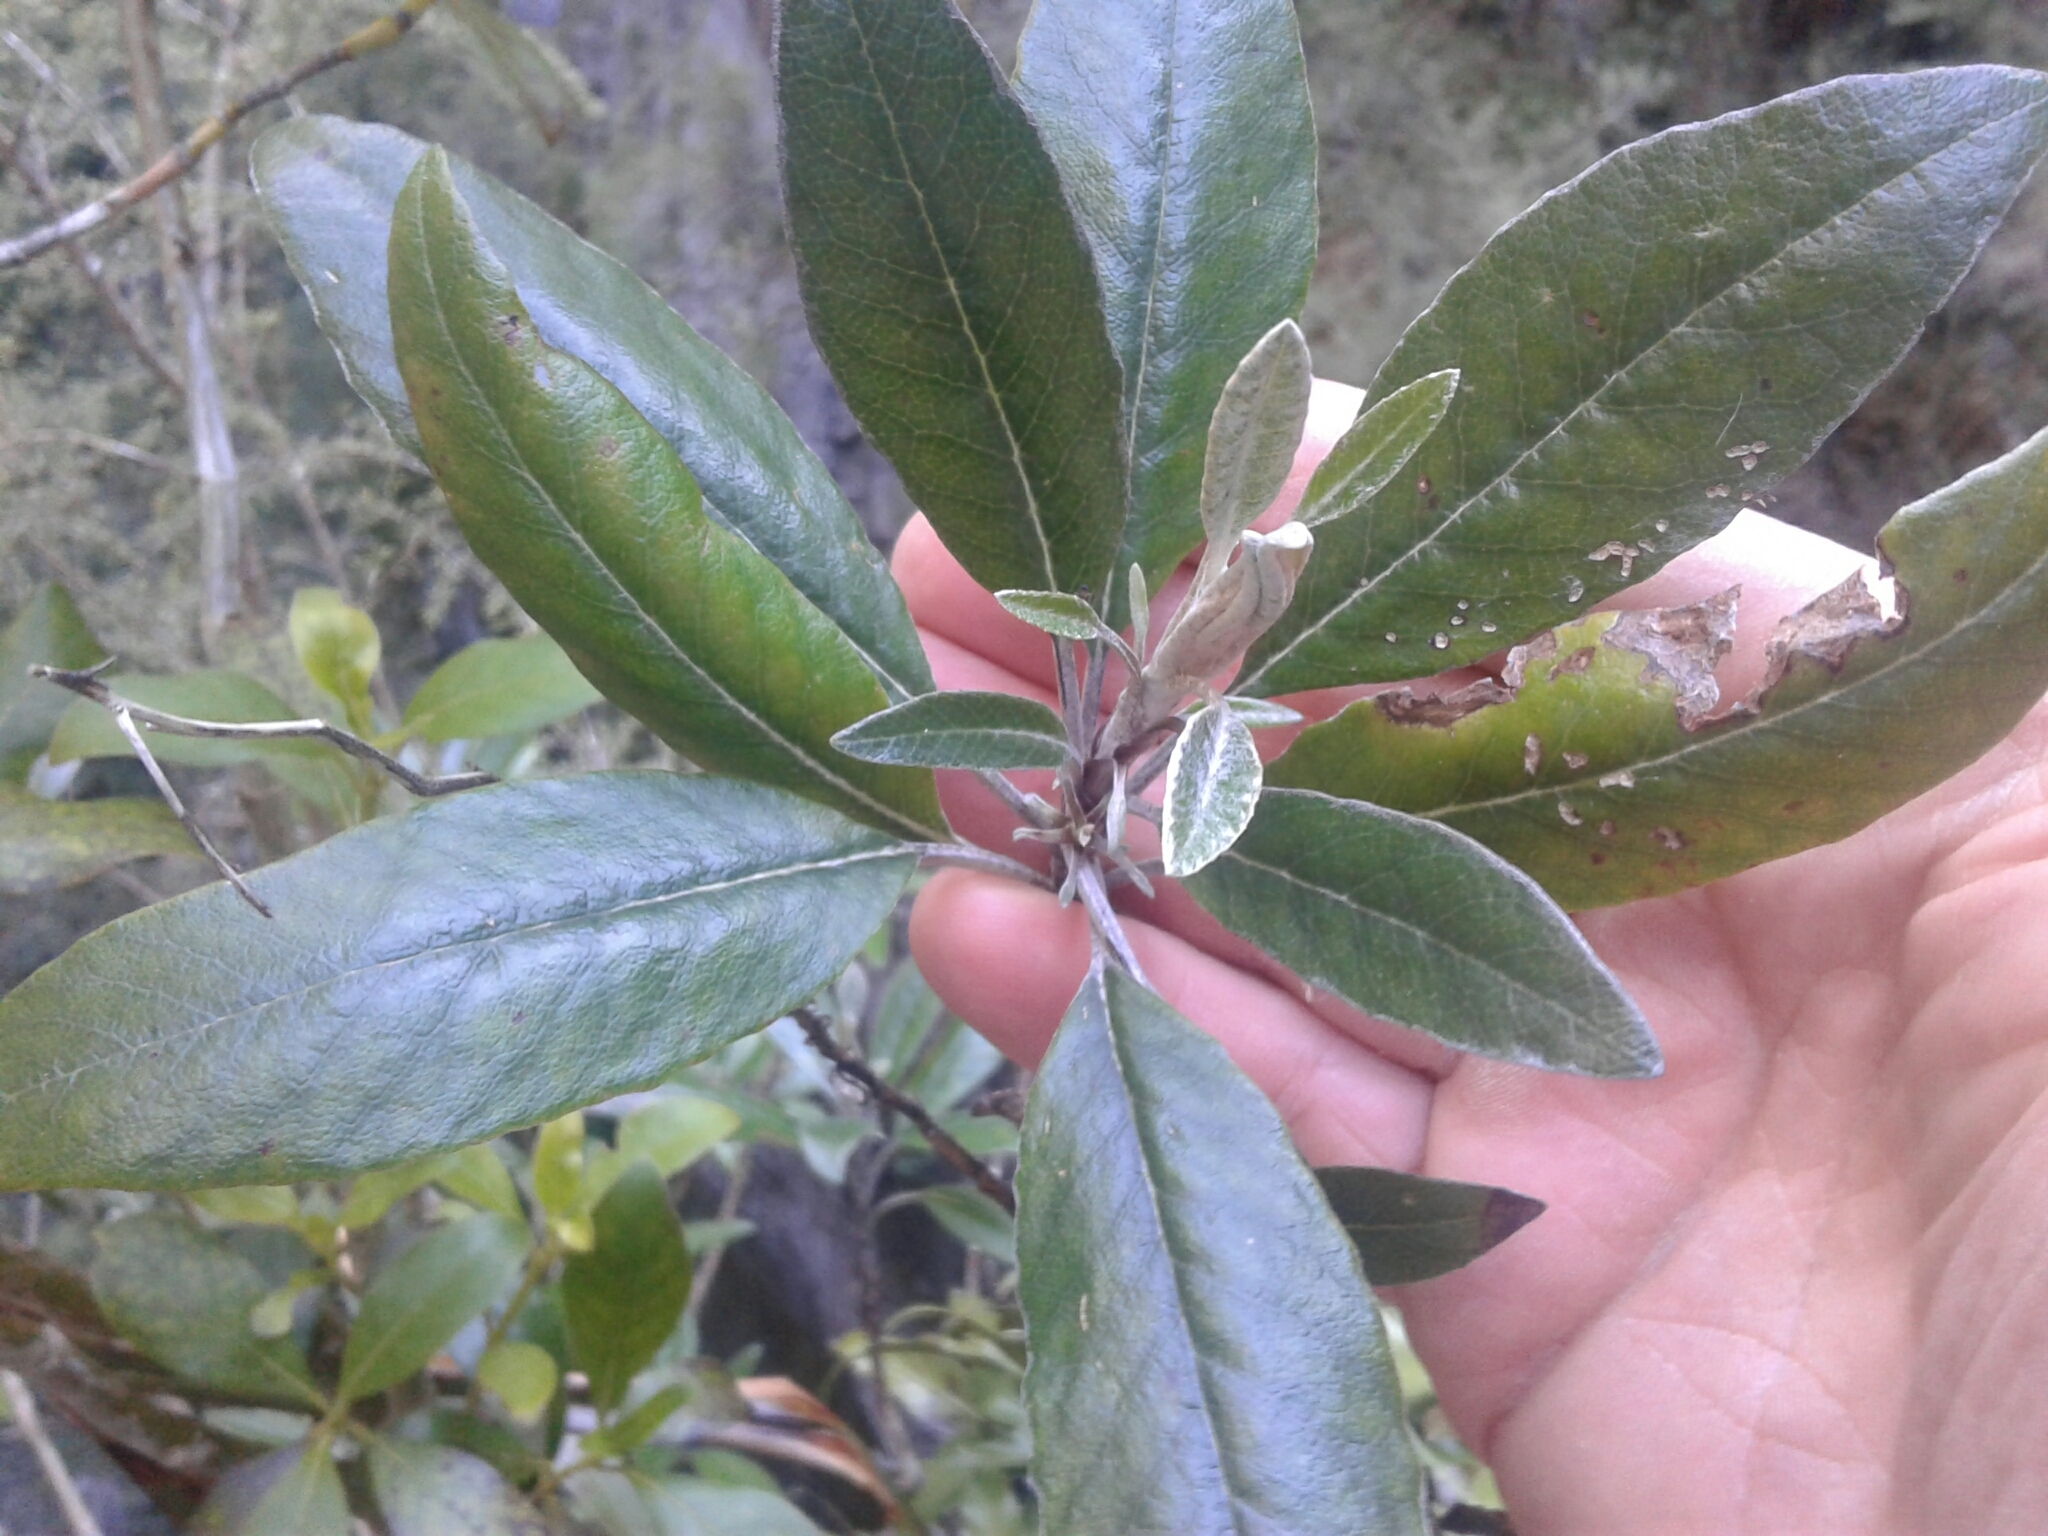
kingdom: Plantae
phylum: Tracheophyta
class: Magnoliopsida
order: Asterales
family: Asteraceae
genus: Brachyglottis
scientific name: Brachyglottis laxifolia
